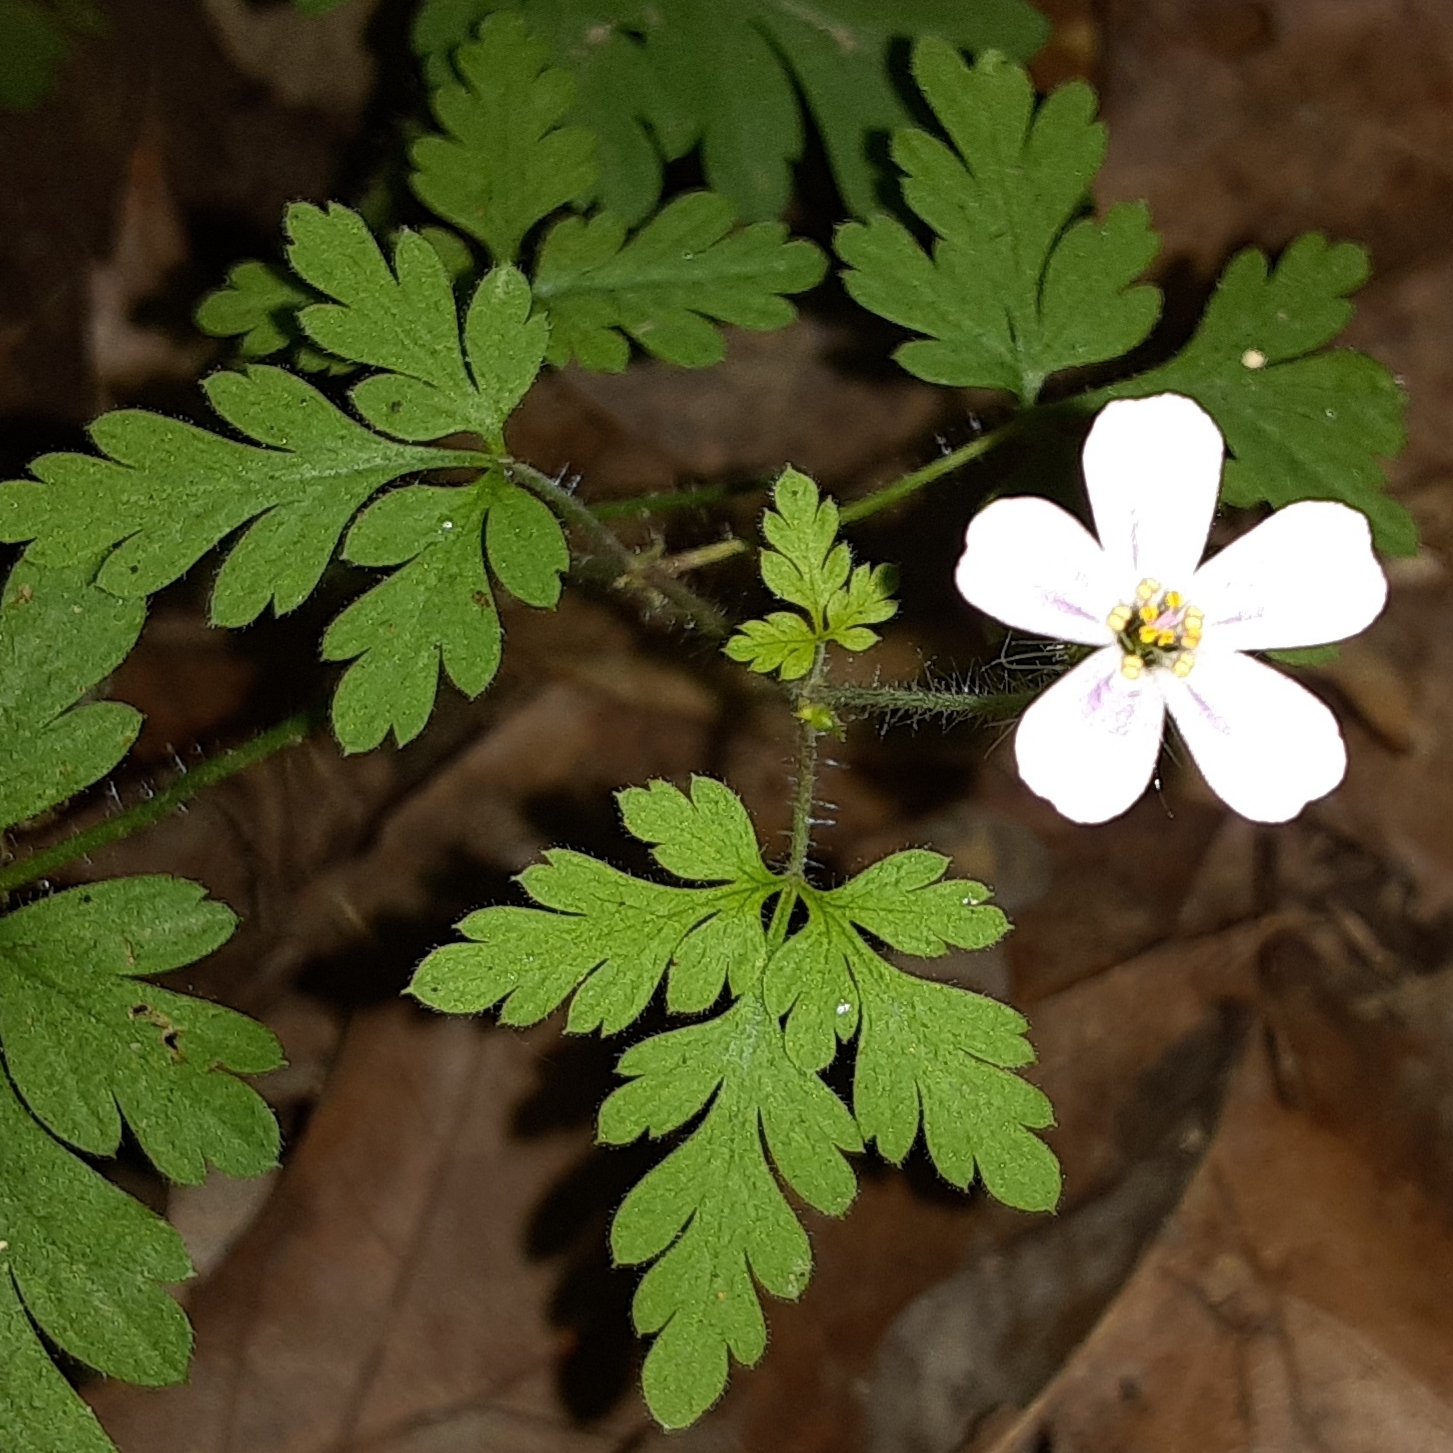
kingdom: Plantae
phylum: Tracheophyta
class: Magnoliopsida
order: Geraniales
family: Geraniaceae
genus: Geranium
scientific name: Geranium robertianum
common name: Herb-robert
